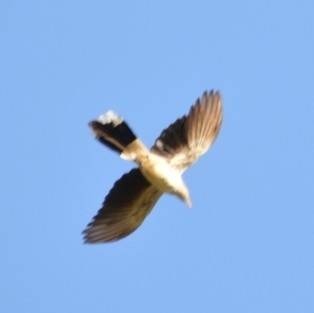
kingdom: Animalia
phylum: Chordata
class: Aves
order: Cuculiformes
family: Cuculidae
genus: Guira
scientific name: Guira guira
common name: Guira cuckoo
